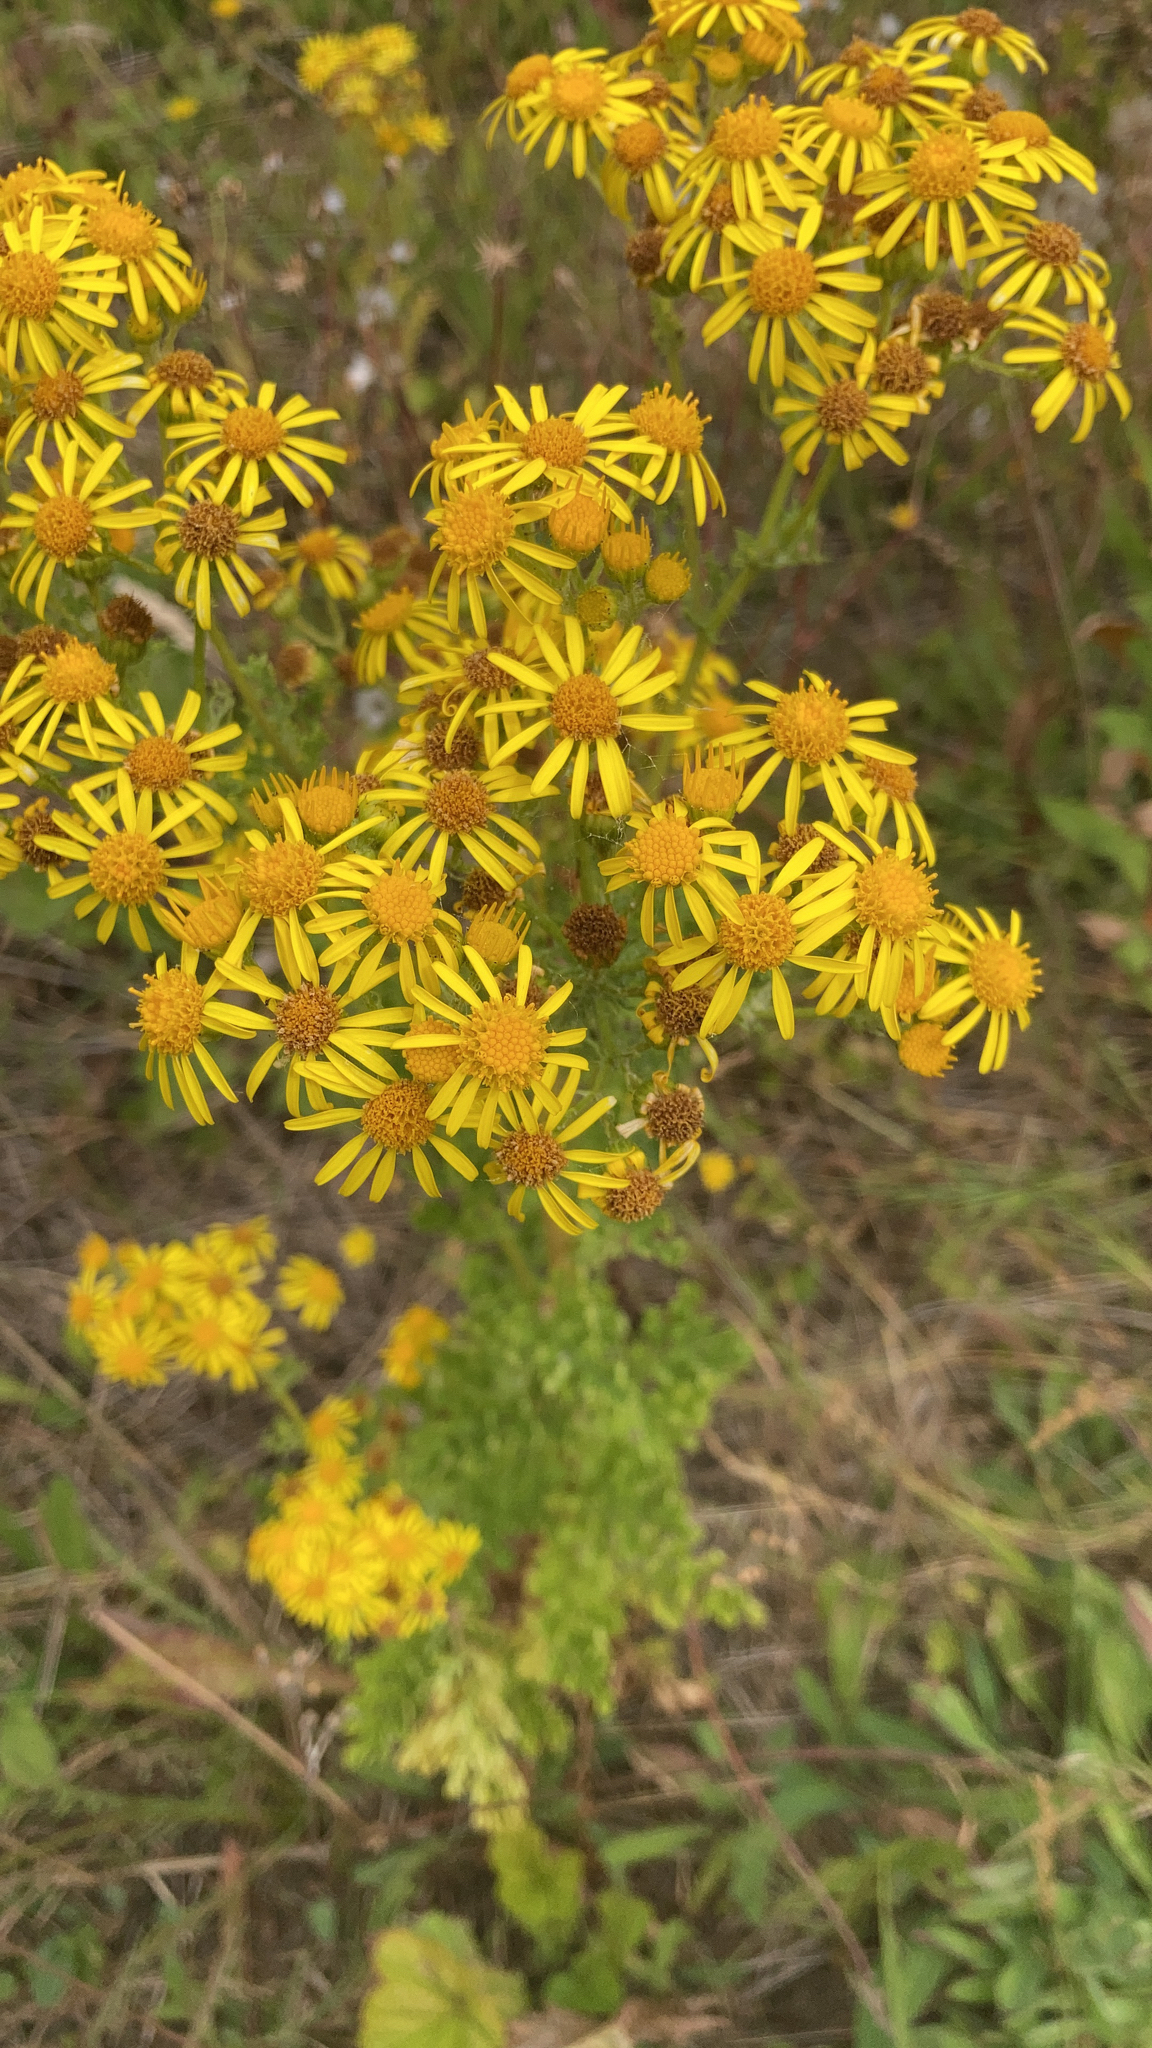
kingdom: Plantae
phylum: Tracheophyta
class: Magnoliopsida
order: Asterales
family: Asteraceae
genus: Jacobaea
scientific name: Jacobaea vulgaris
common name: Stinking willie
